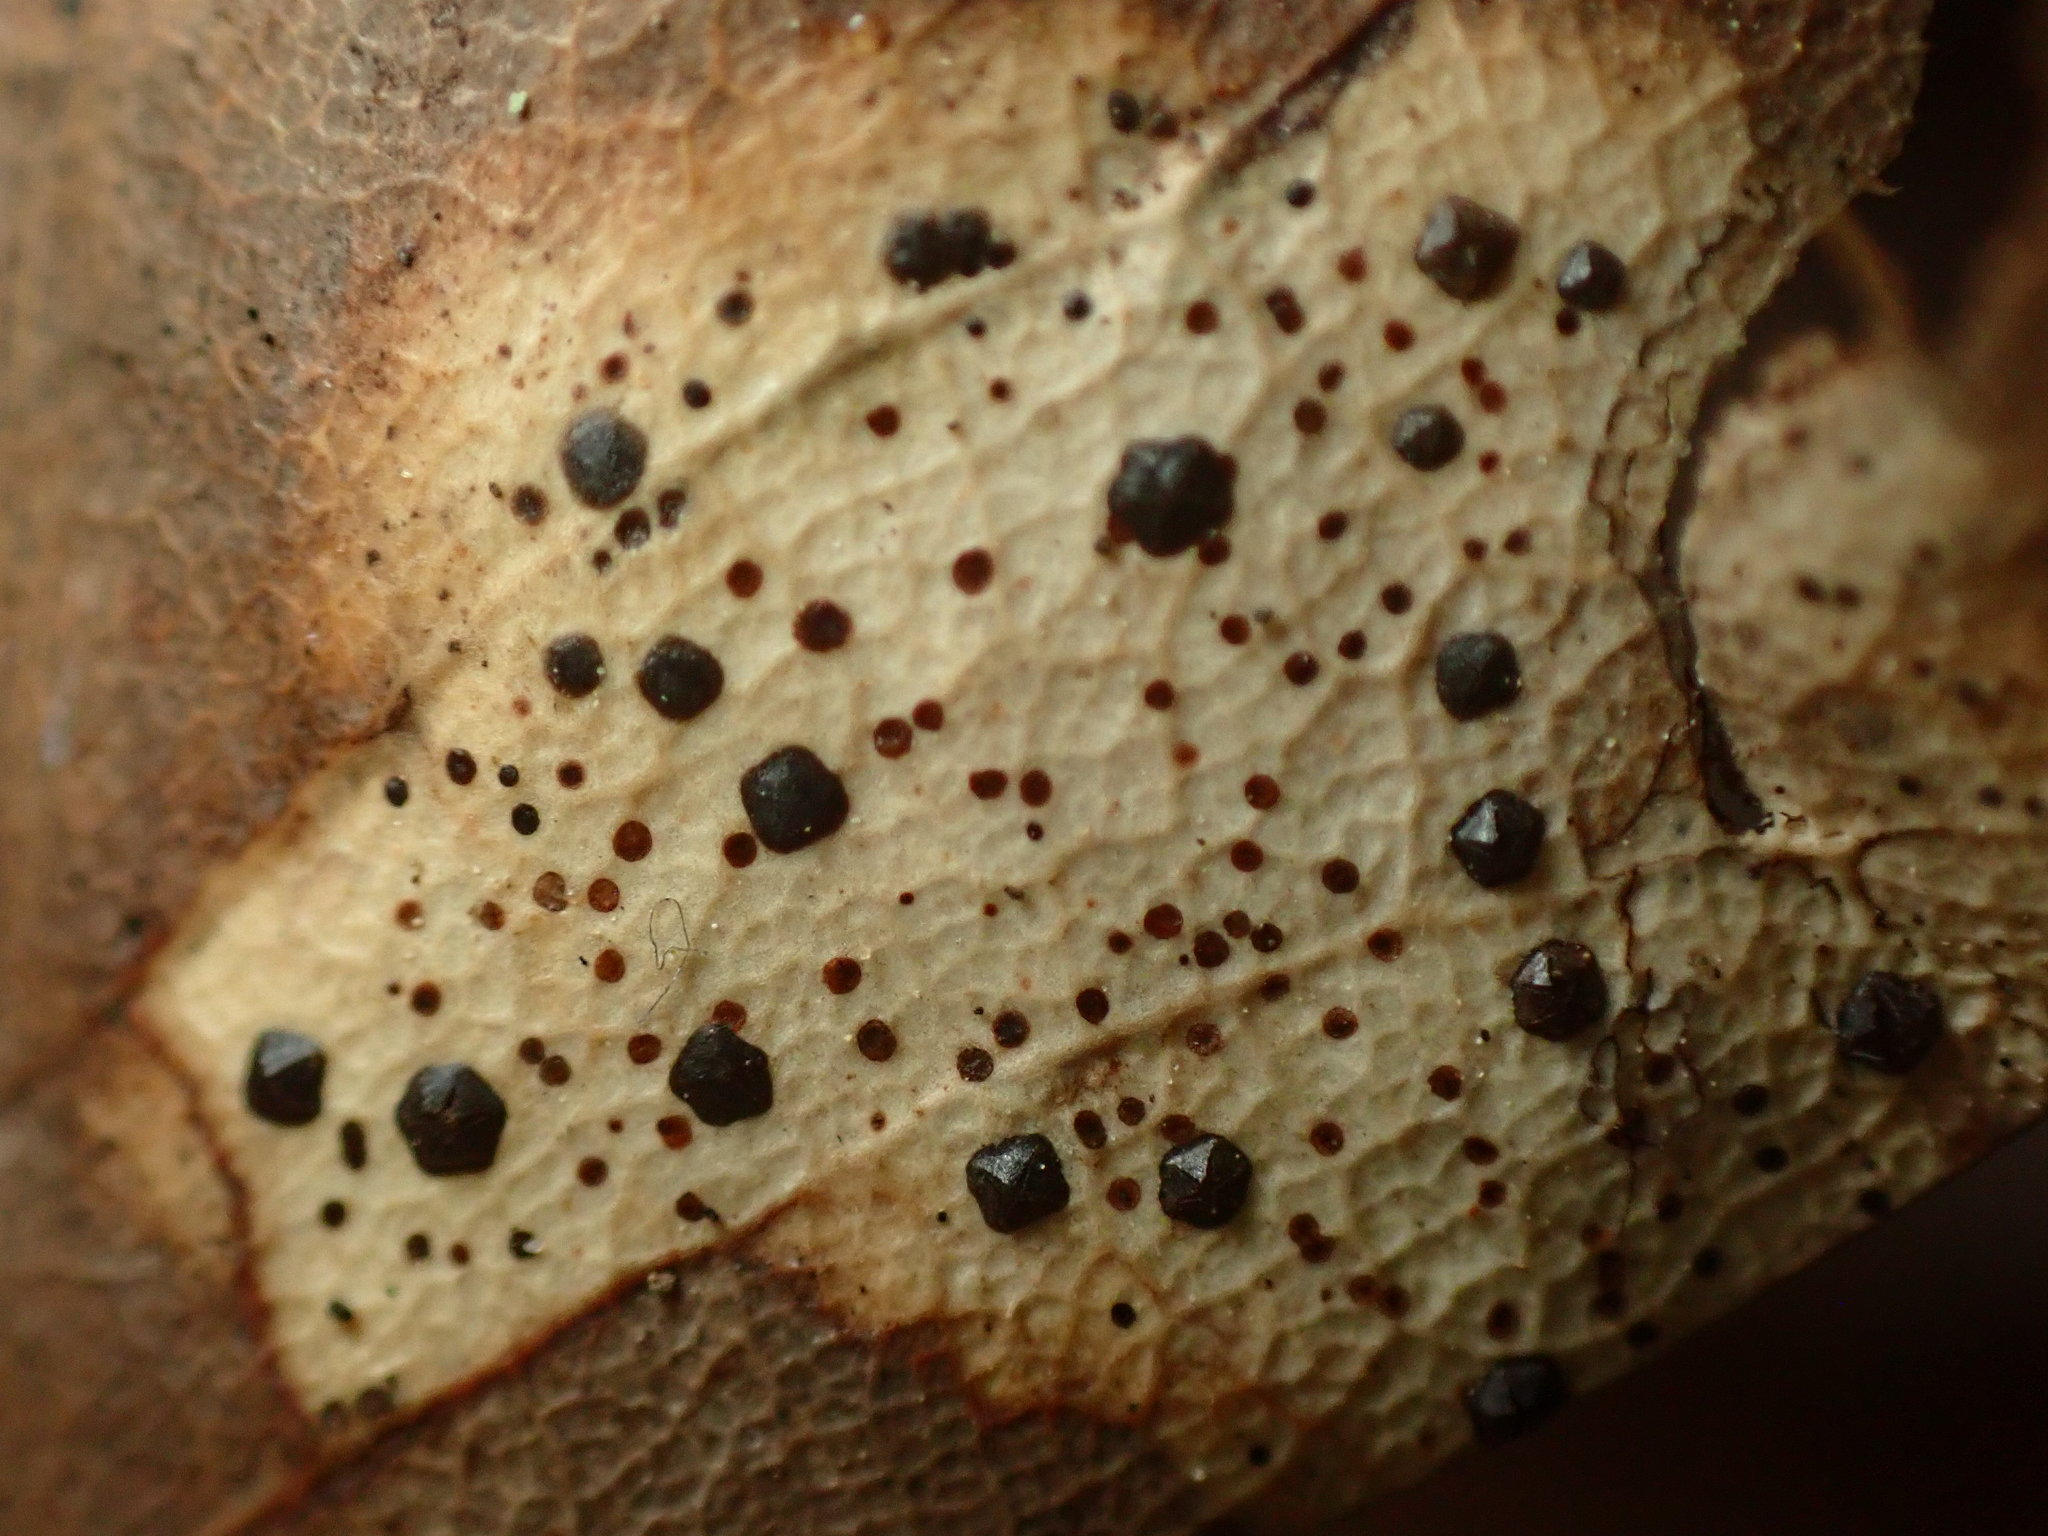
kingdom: Fungi
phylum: Ascomycota
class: Leotiomycetes
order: Rhytismatales
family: Rhytismataceae
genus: Coccomyces
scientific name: Coccomyces dentatus
